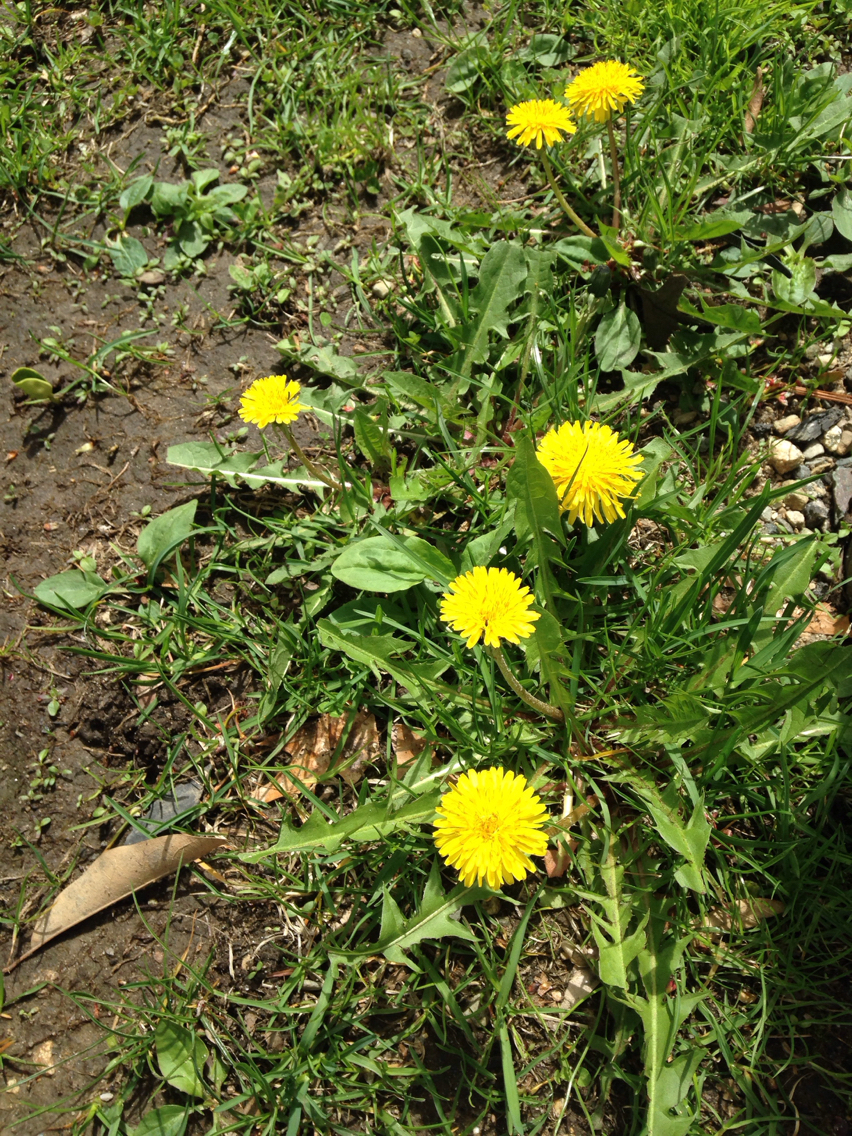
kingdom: Plantae
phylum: Tracheophyta
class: Magnoliopsida
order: Asterales
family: Asteraceae
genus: Taraxacum
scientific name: Taraxacum officinale
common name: Common dandelion
